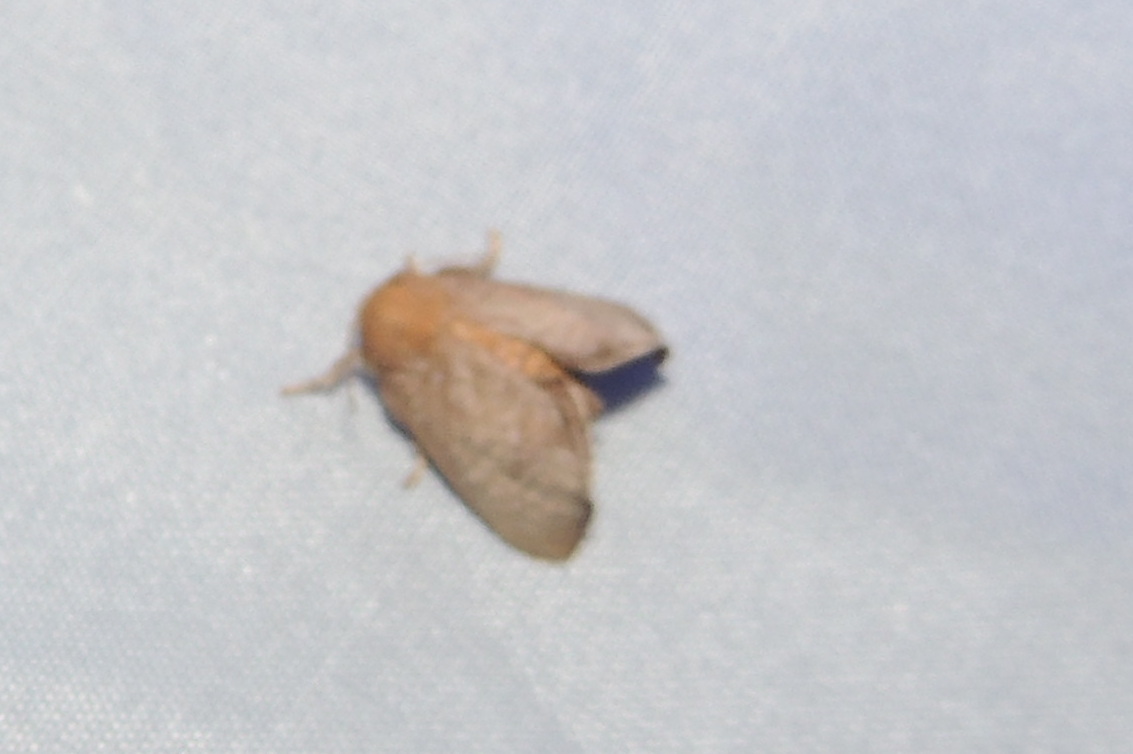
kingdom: Animalia
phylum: Arthropoda
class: Insecta
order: Lepidoptera
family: Limacodidae
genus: Isa
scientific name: Isa textula
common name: Crowned slug moth
